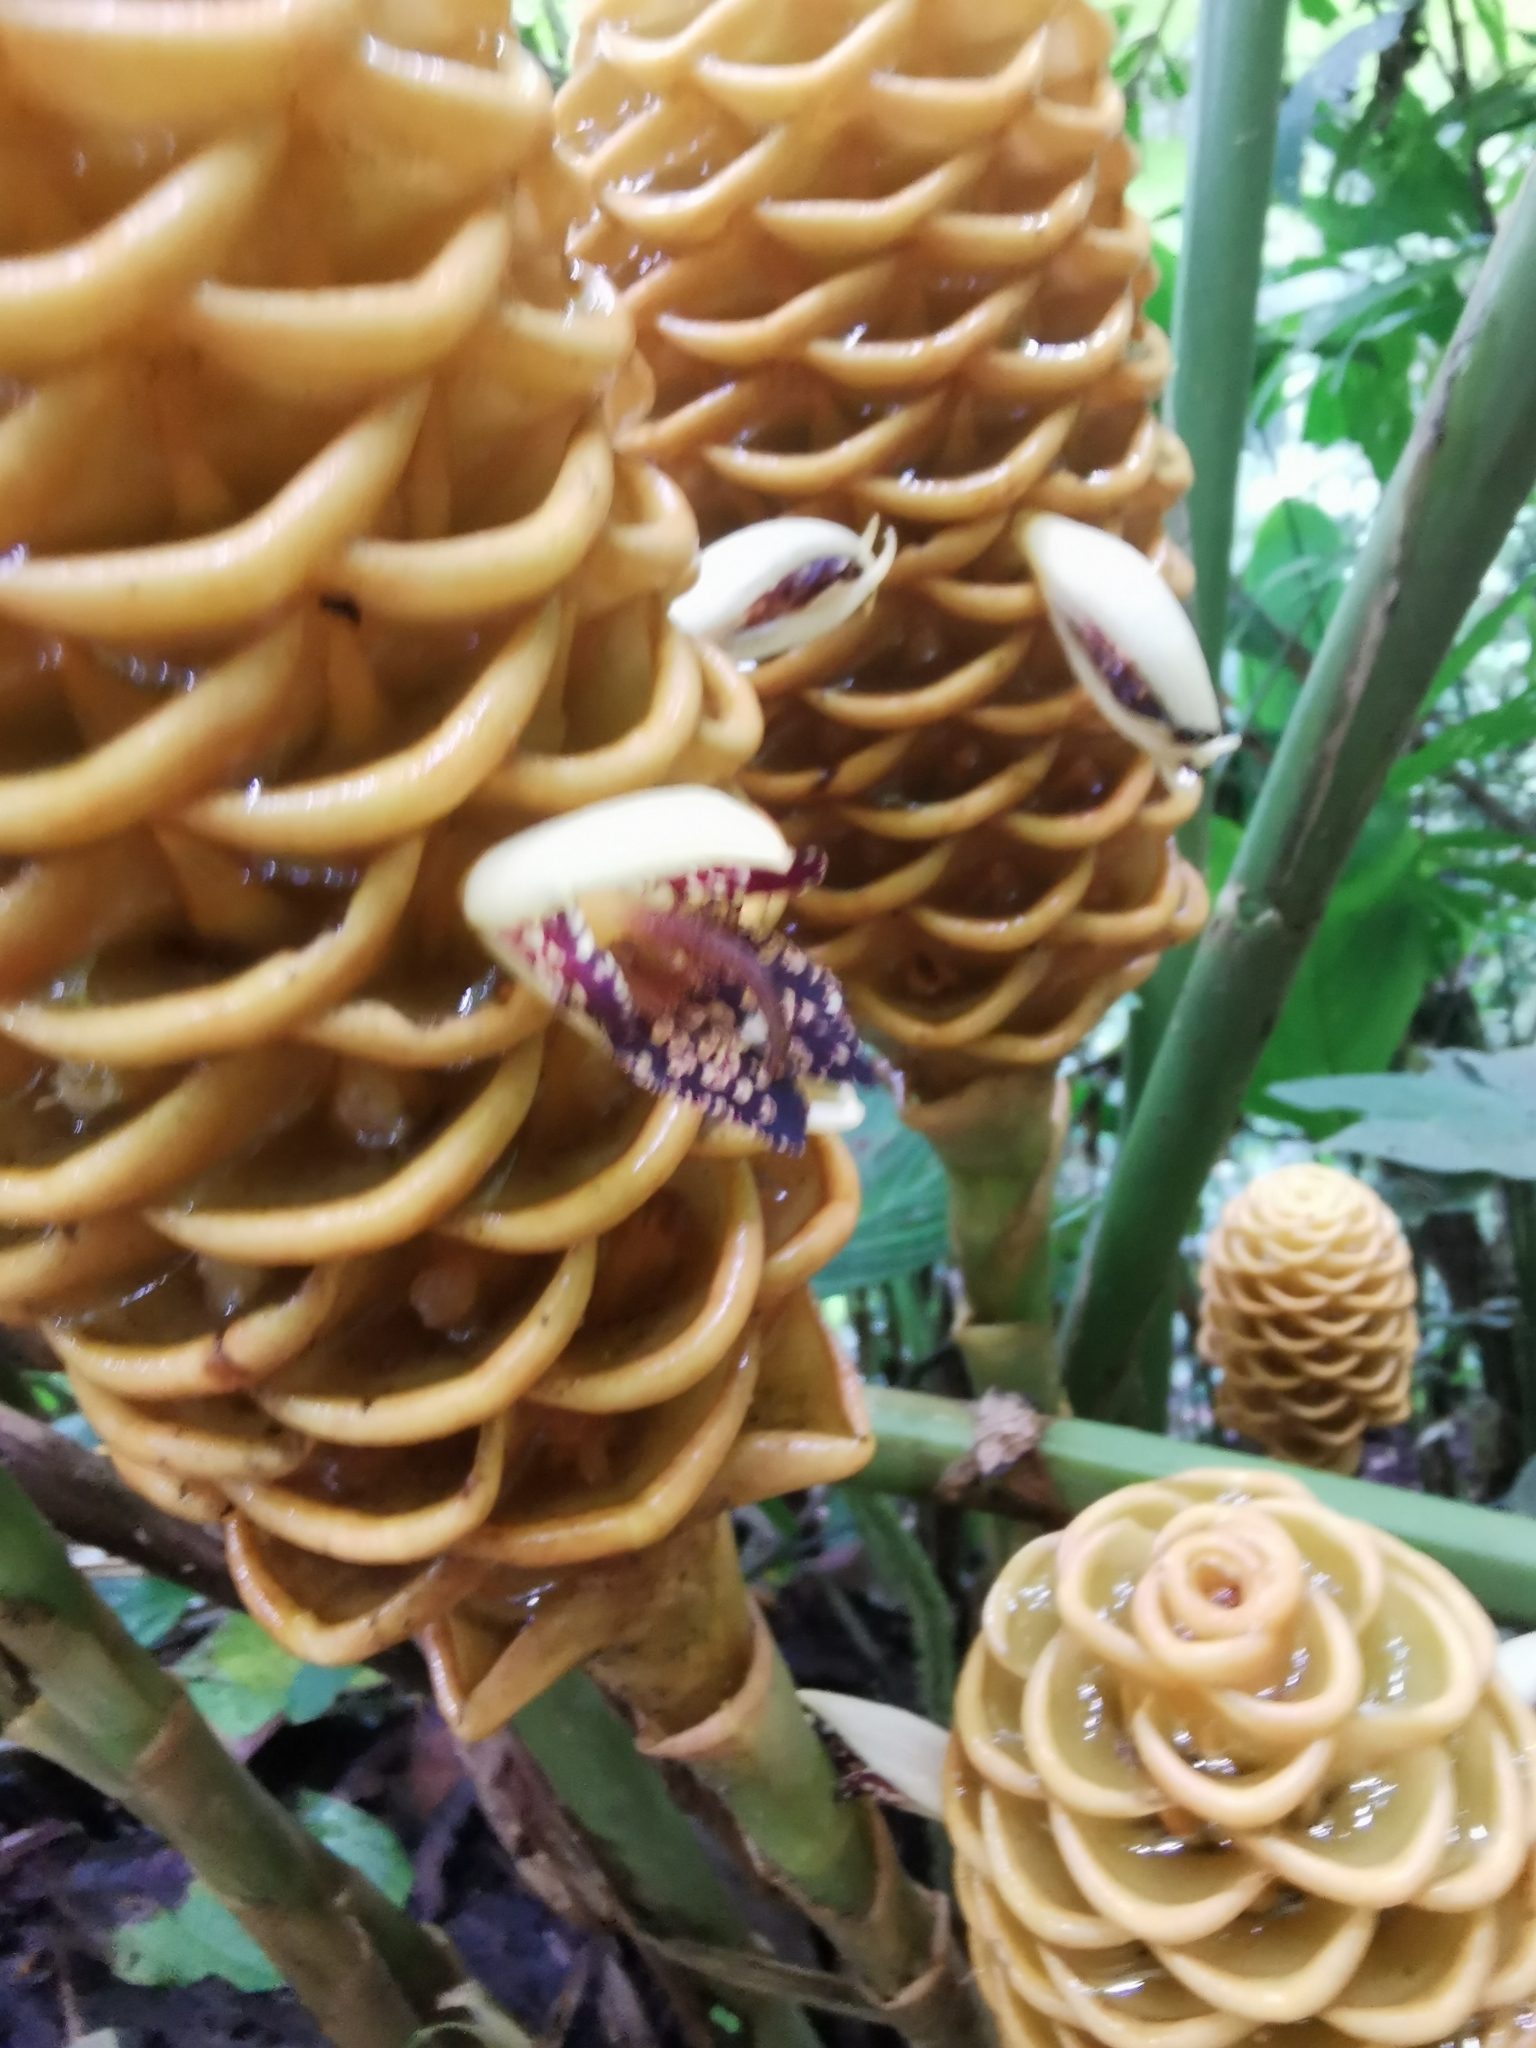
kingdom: Plantae
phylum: Tracheophyta
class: Liliopsida
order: Zingiberales
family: Zingiberaceae
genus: Zingiber
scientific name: Zingiber spectabile
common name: Beehive ginger
